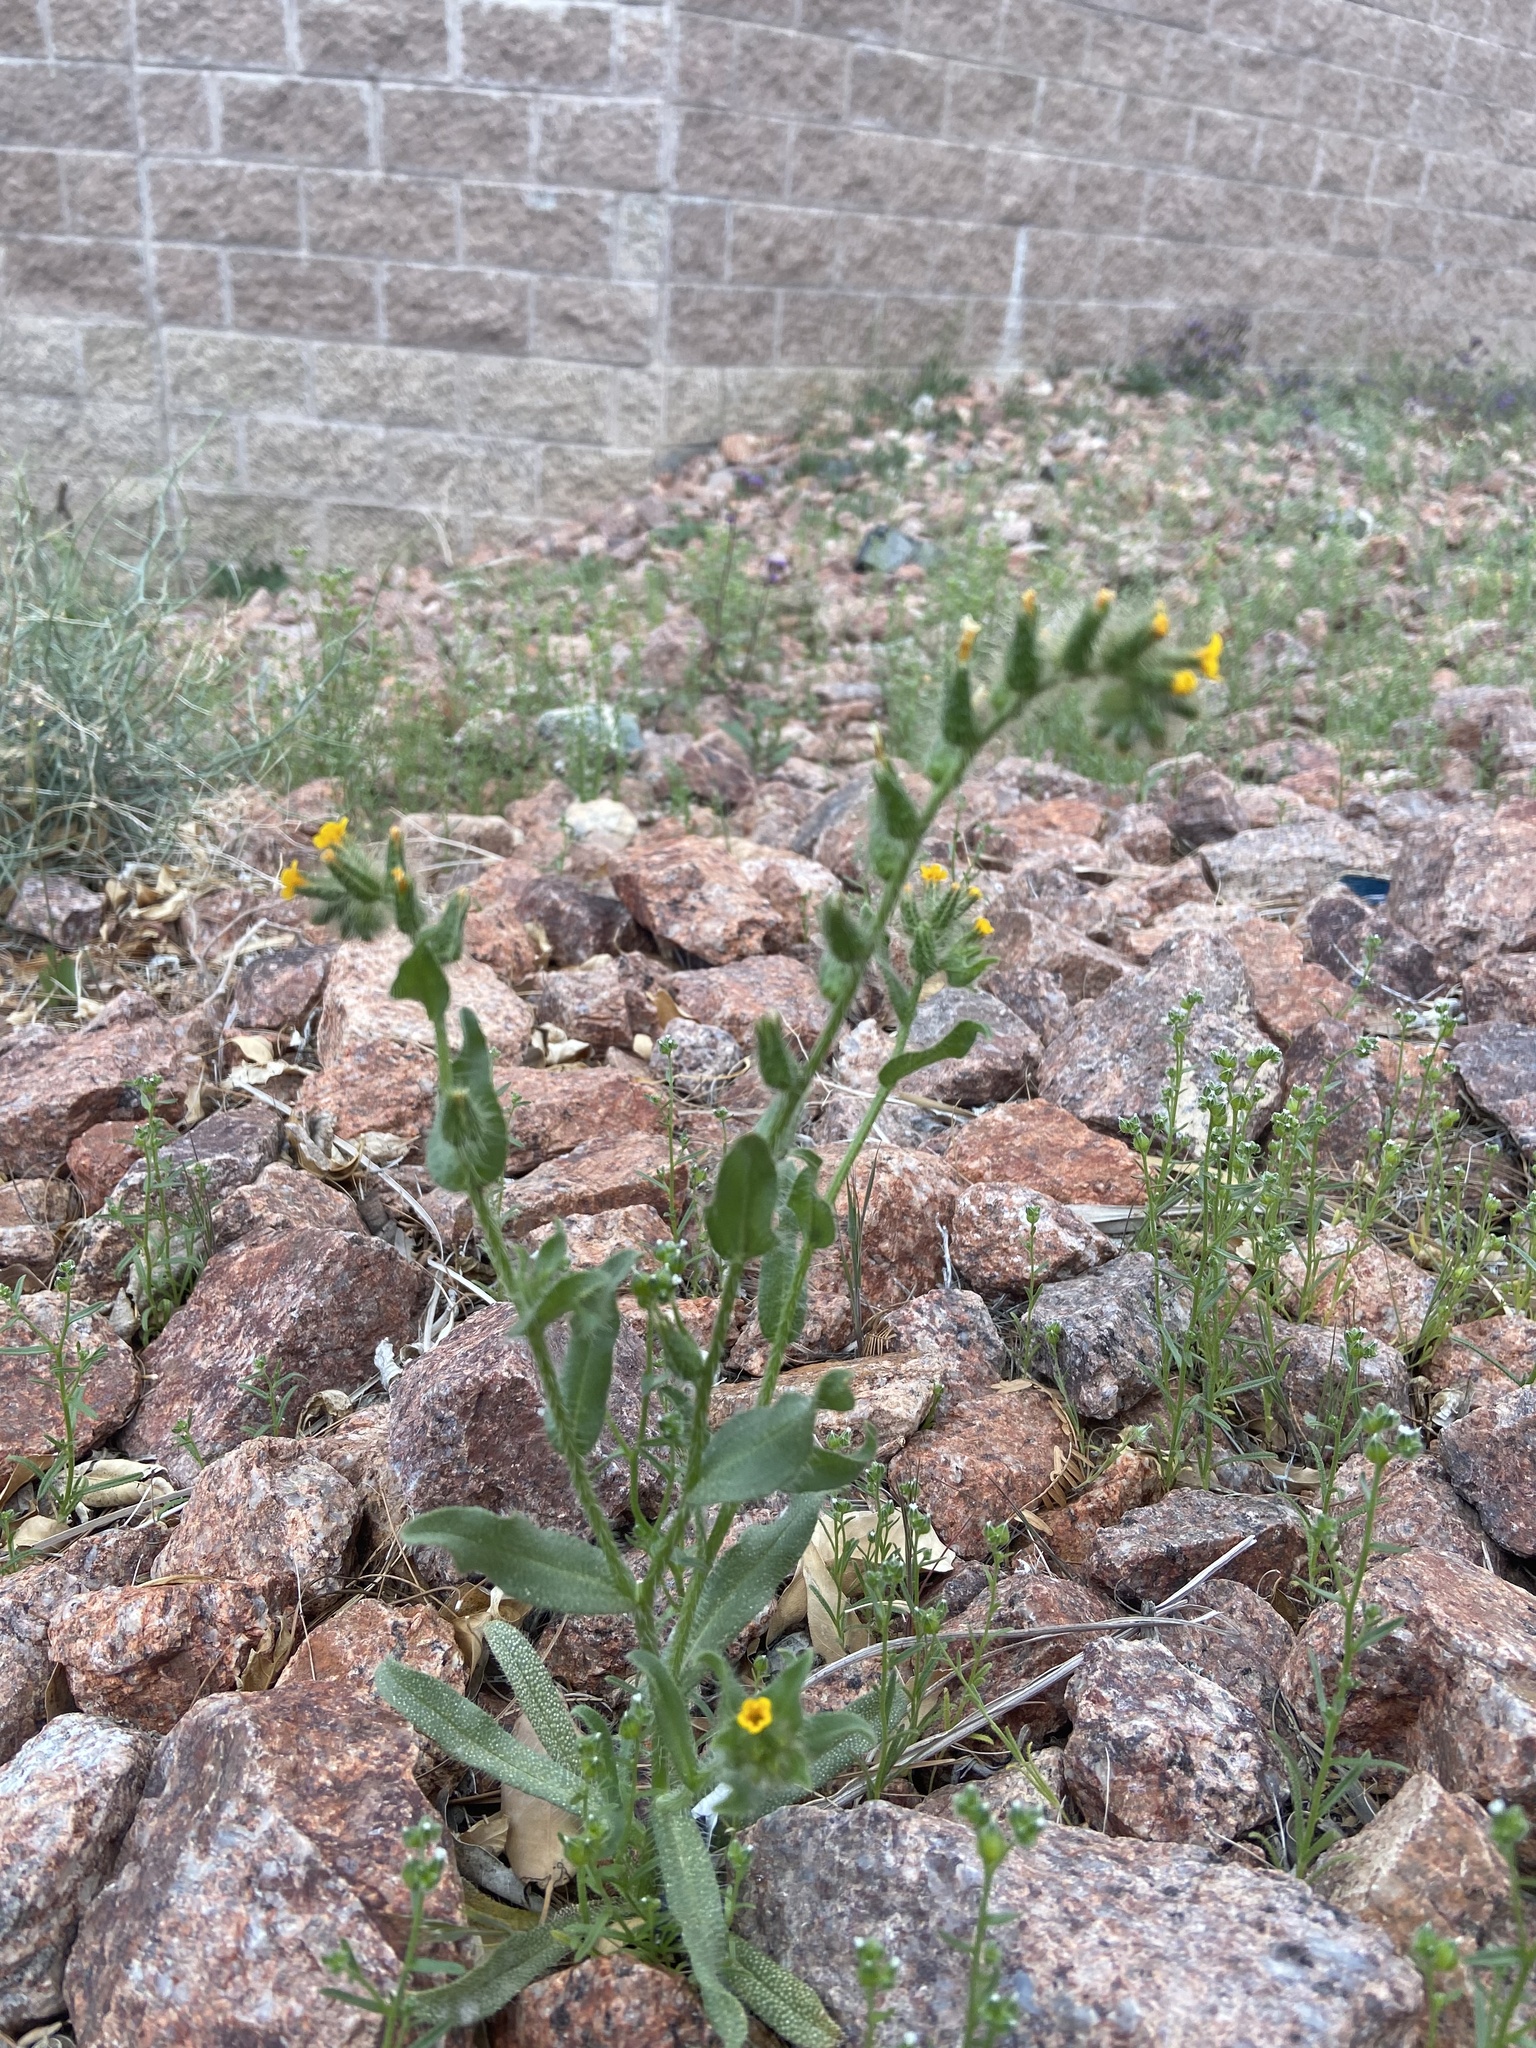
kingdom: Plantae
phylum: Tracheophyta
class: Magnoliopsida
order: Boraginales
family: Boraginaceae
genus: Amsinckia
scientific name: Amsinckia tessellata
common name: Tessellate fiddleneck
